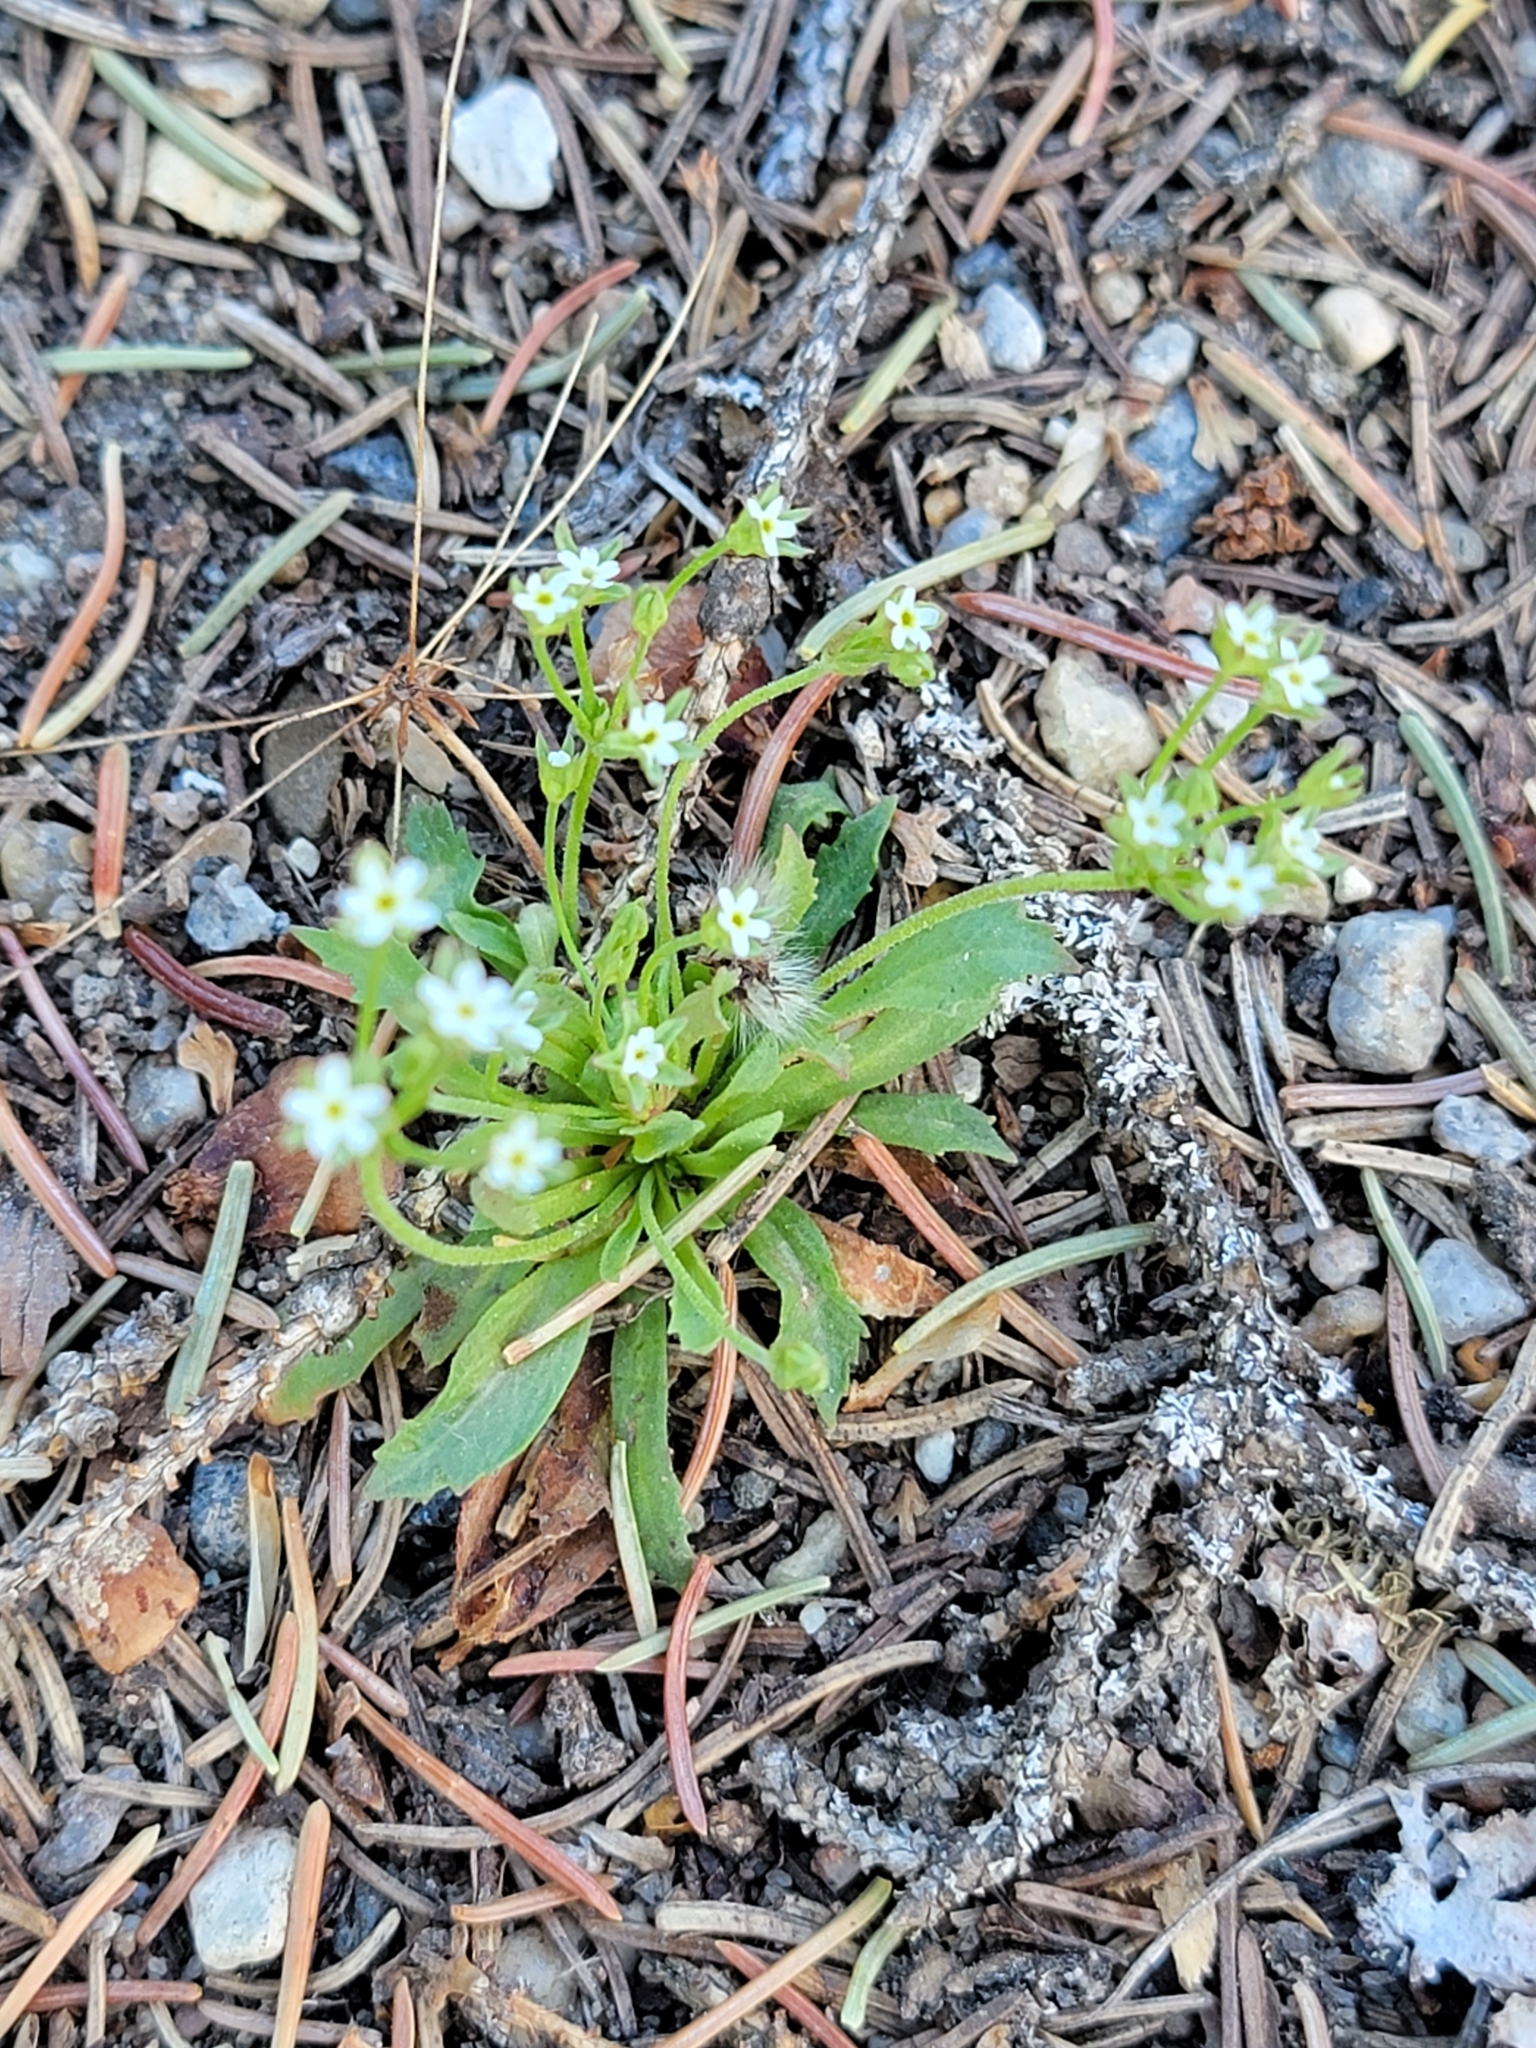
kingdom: Plantae
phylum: Tracheophyta
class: Magnoliopsida
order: Ericales
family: Primulaceae
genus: Androsace
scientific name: Androsace septentrionalis
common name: Hairy northern fairy-candelabra
